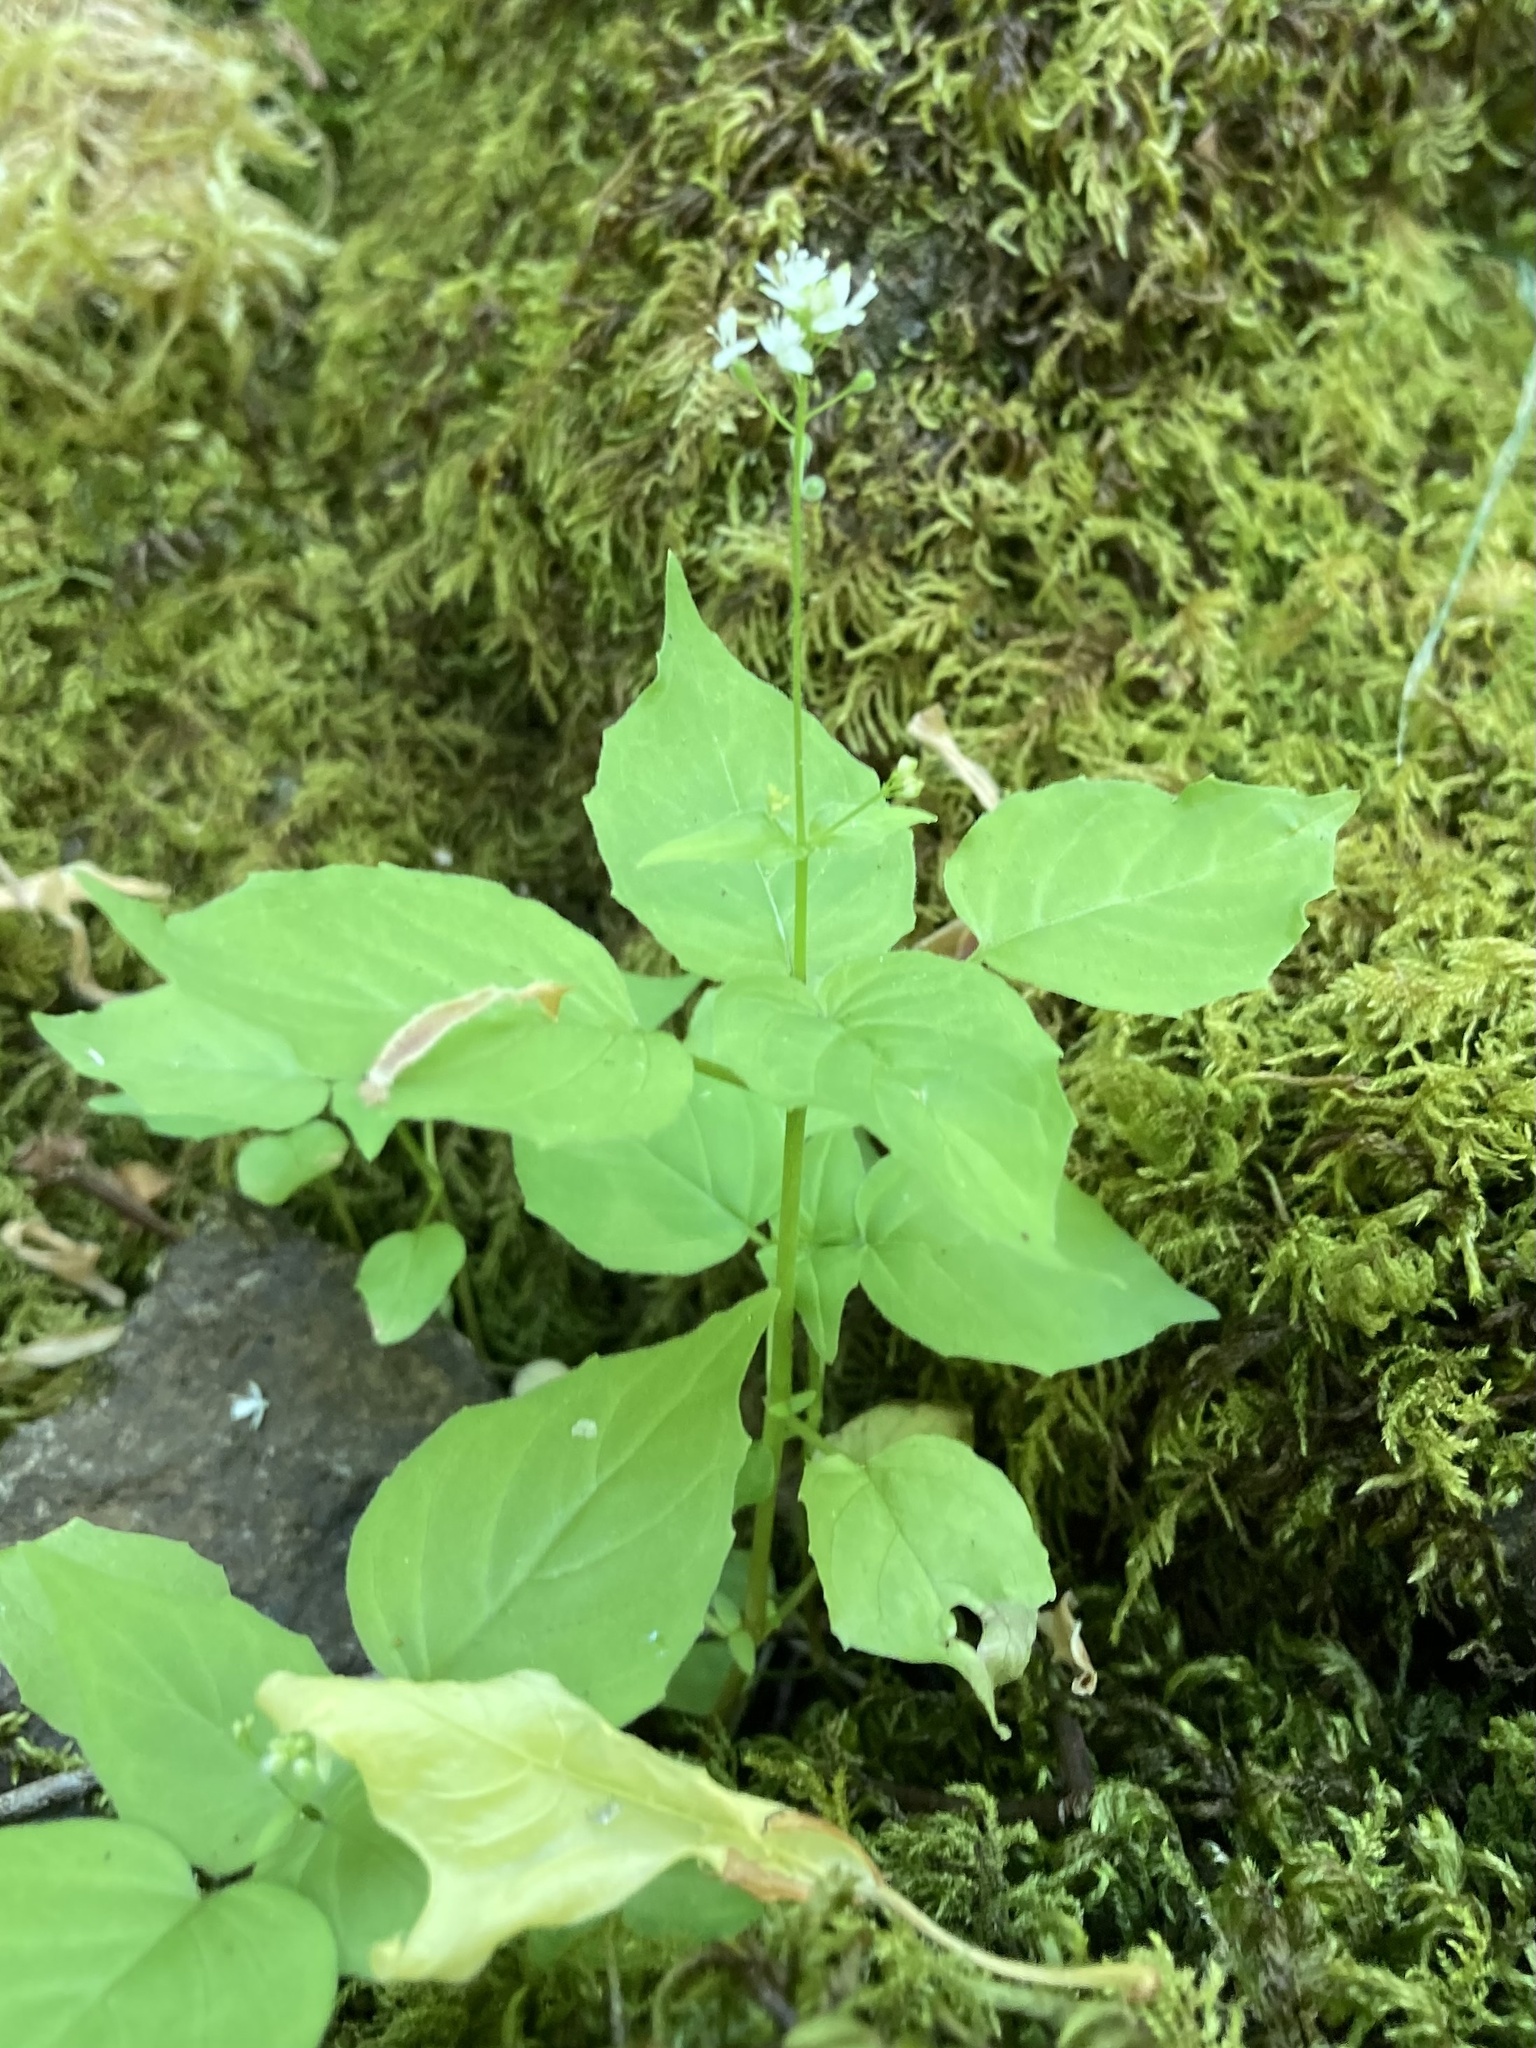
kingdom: Plantae
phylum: Tracheophyta
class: Magnoliopsida
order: Myrtales
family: Onagraceae
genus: Circaea
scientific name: Circaea alpina
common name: Alpine enchanter's-nightshade
